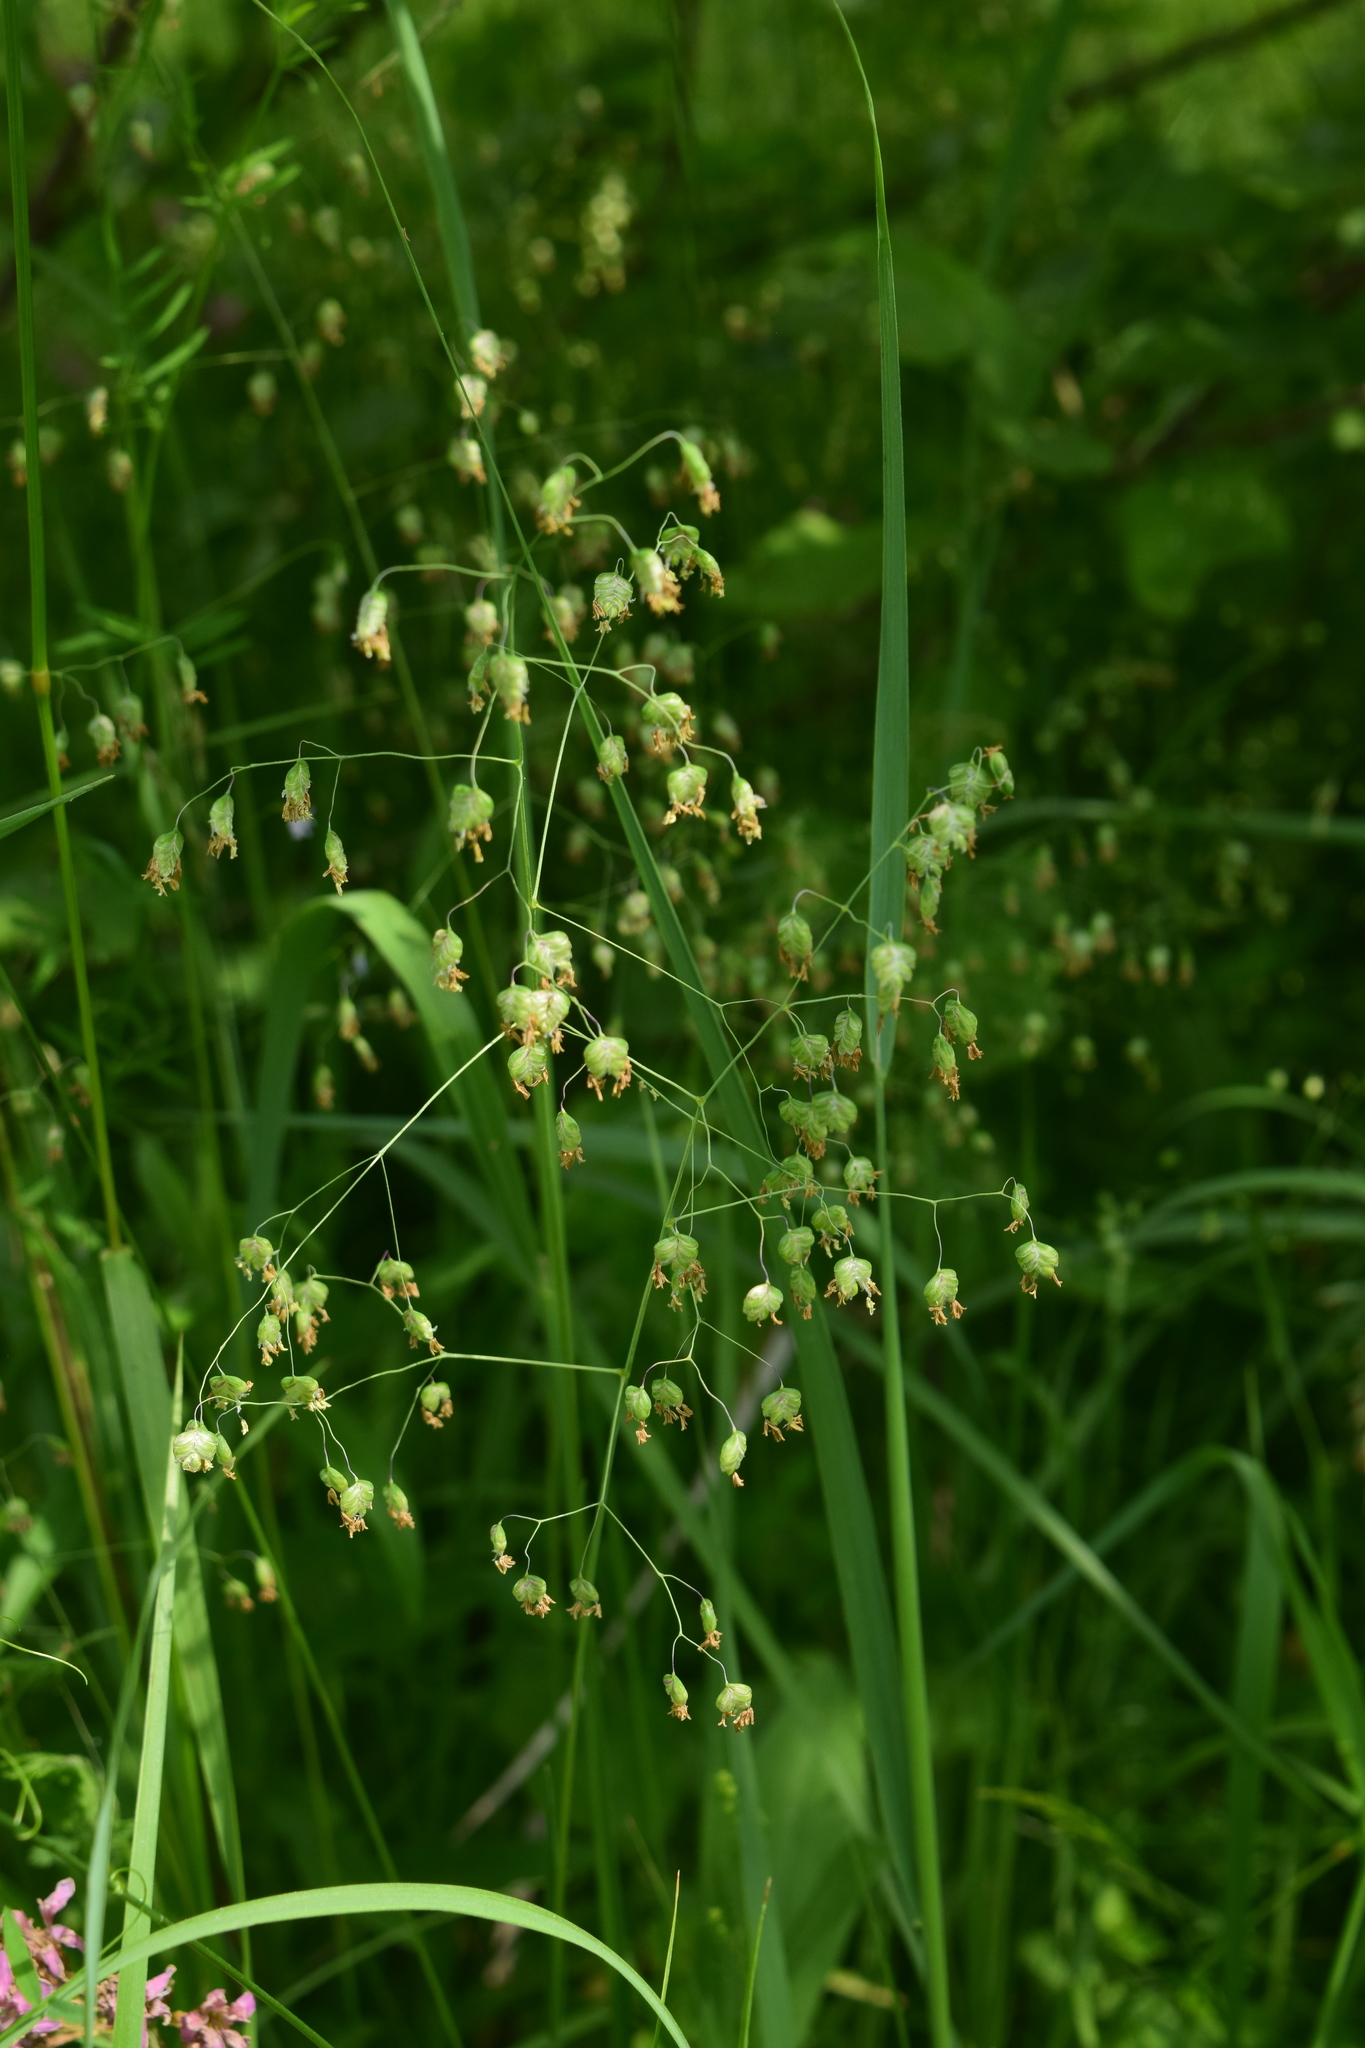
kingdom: Plantae
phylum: Tracheophyta
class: Liliopsida
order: Poales
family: Poaceae
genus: Briza
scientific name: Briza media
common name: Quaking grass
